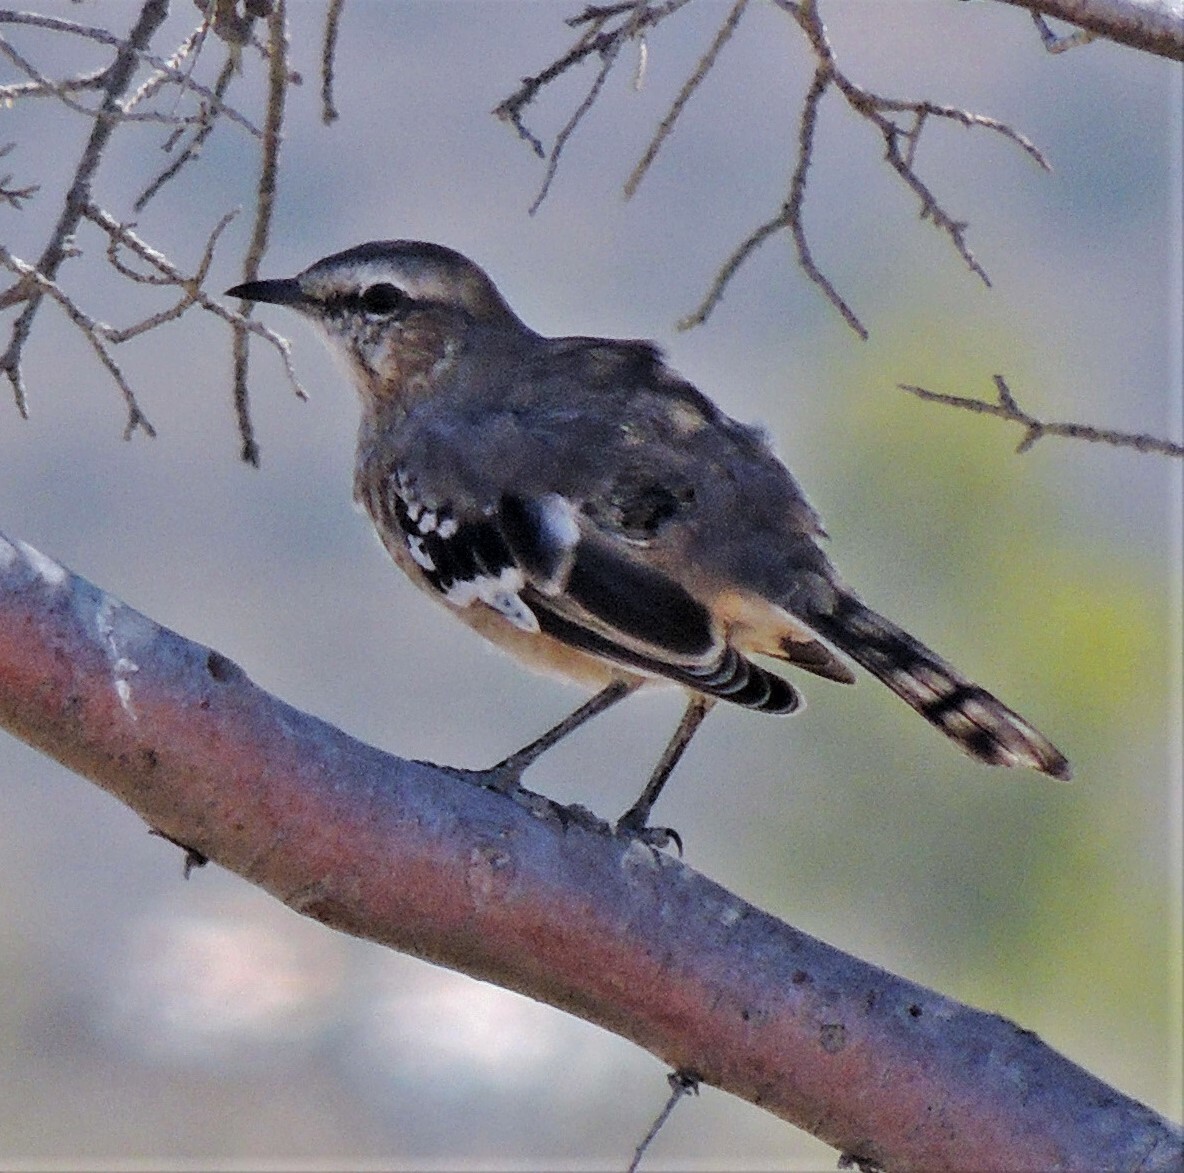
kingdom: Animalia
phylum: Chordata
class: Aves
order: Passeriformes
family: Mimidae
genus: Mimus
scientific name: Mimus patagonicus
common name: Patagonian mockingbird
